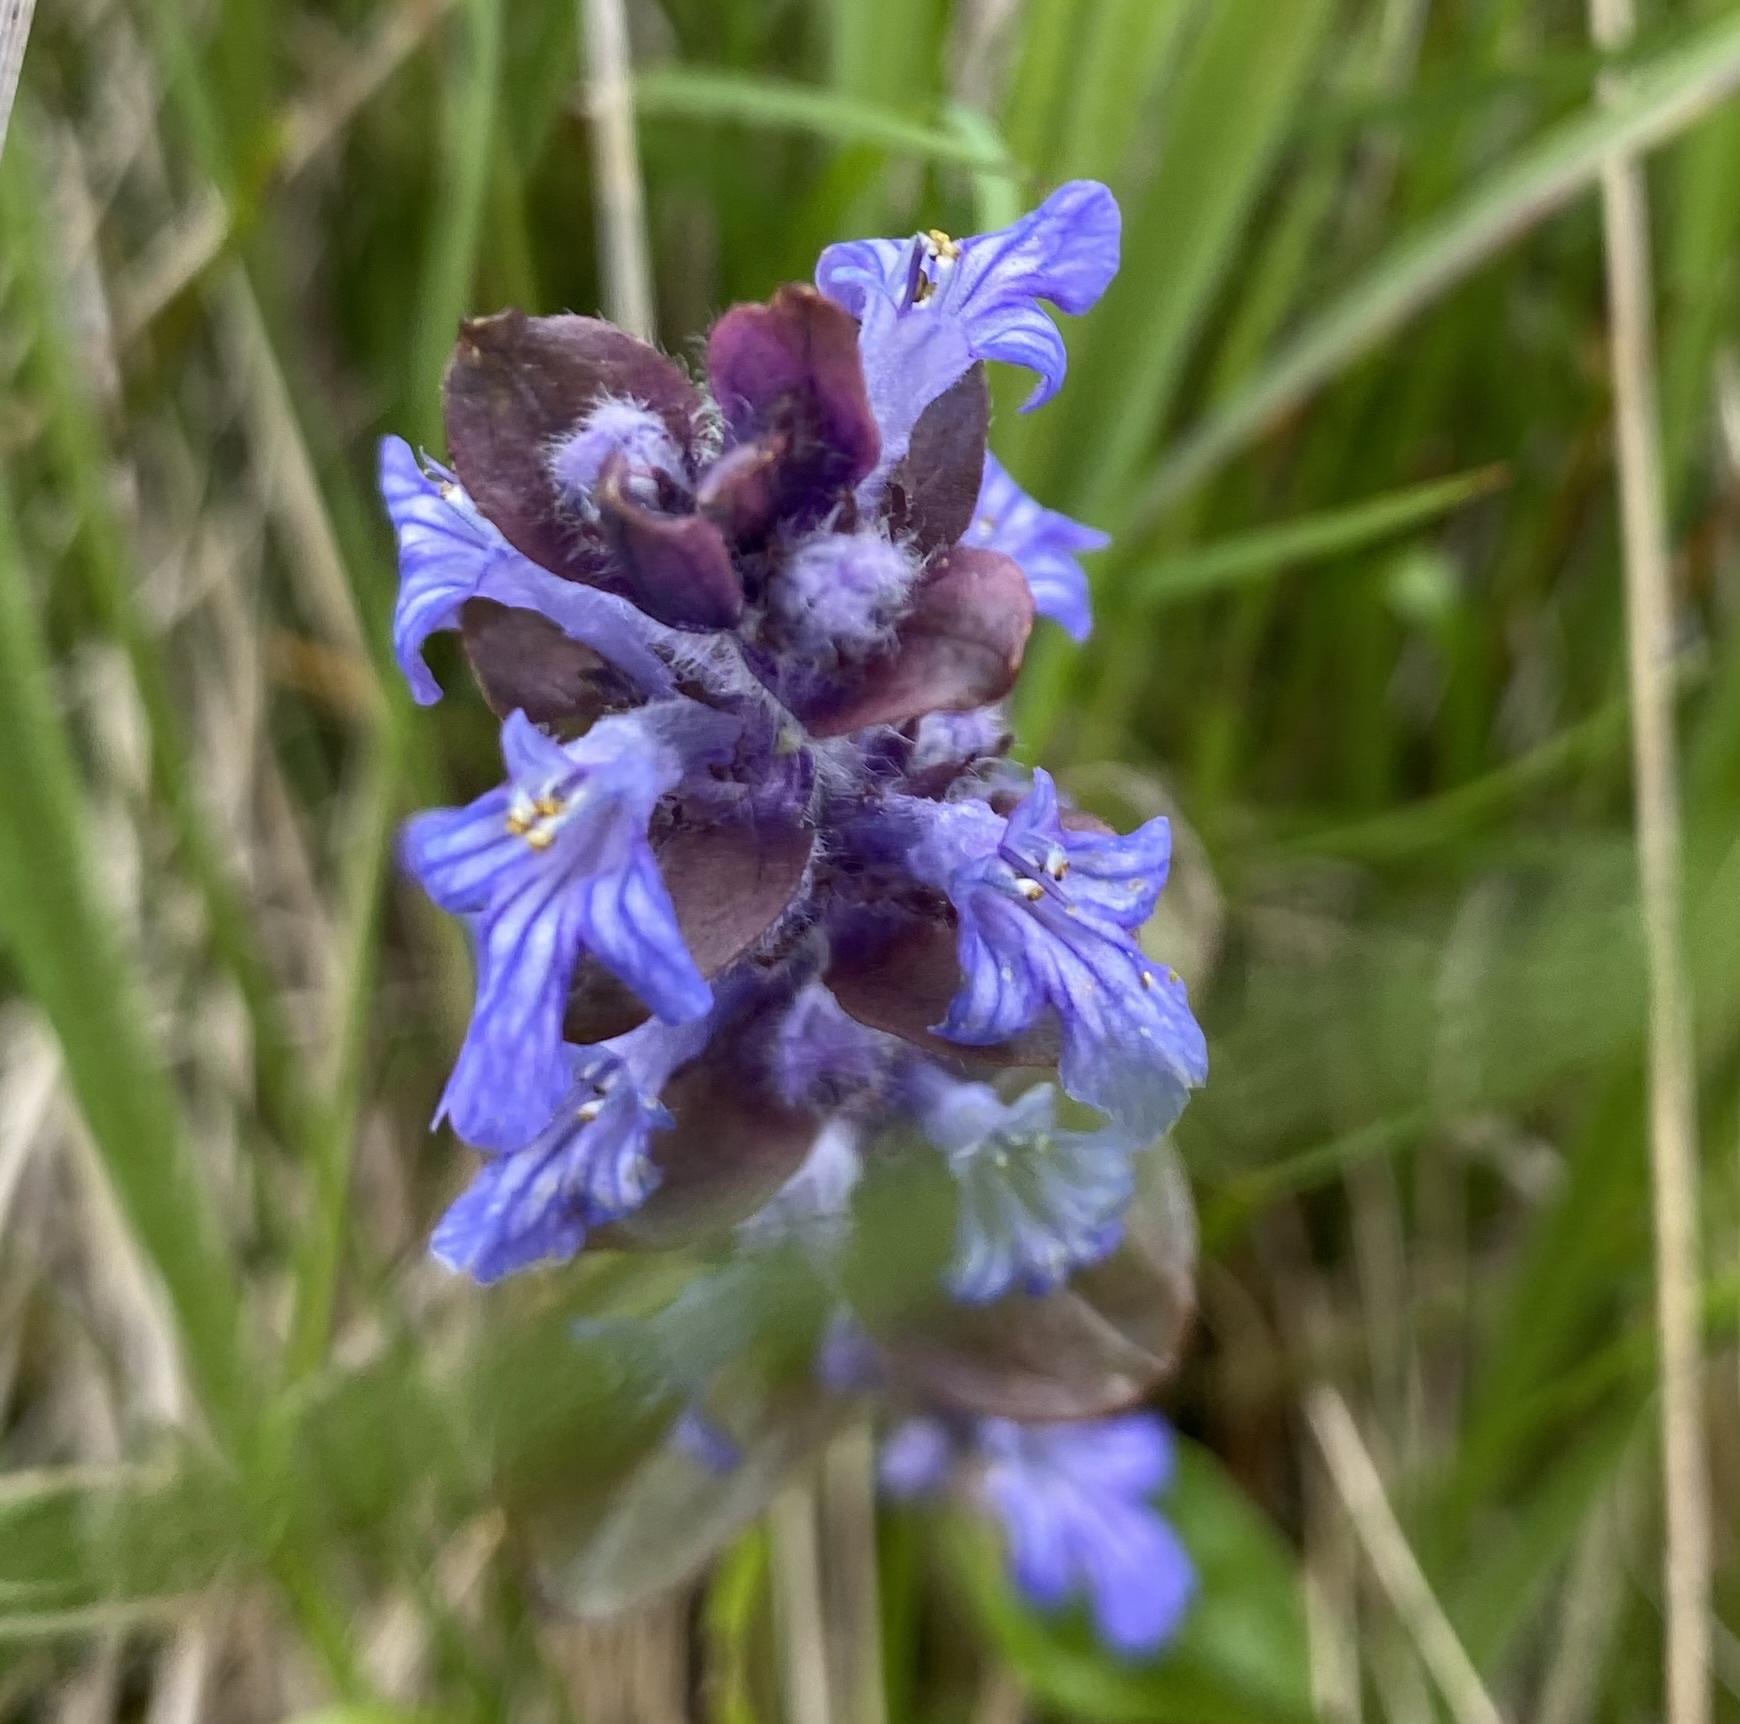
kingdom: Plantae
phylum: Tracheophyta
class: Magnoliopsida
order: Lamiales
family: Lamiaceae
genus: Ajuga
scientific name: Ajuga reptans
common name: Bugle
